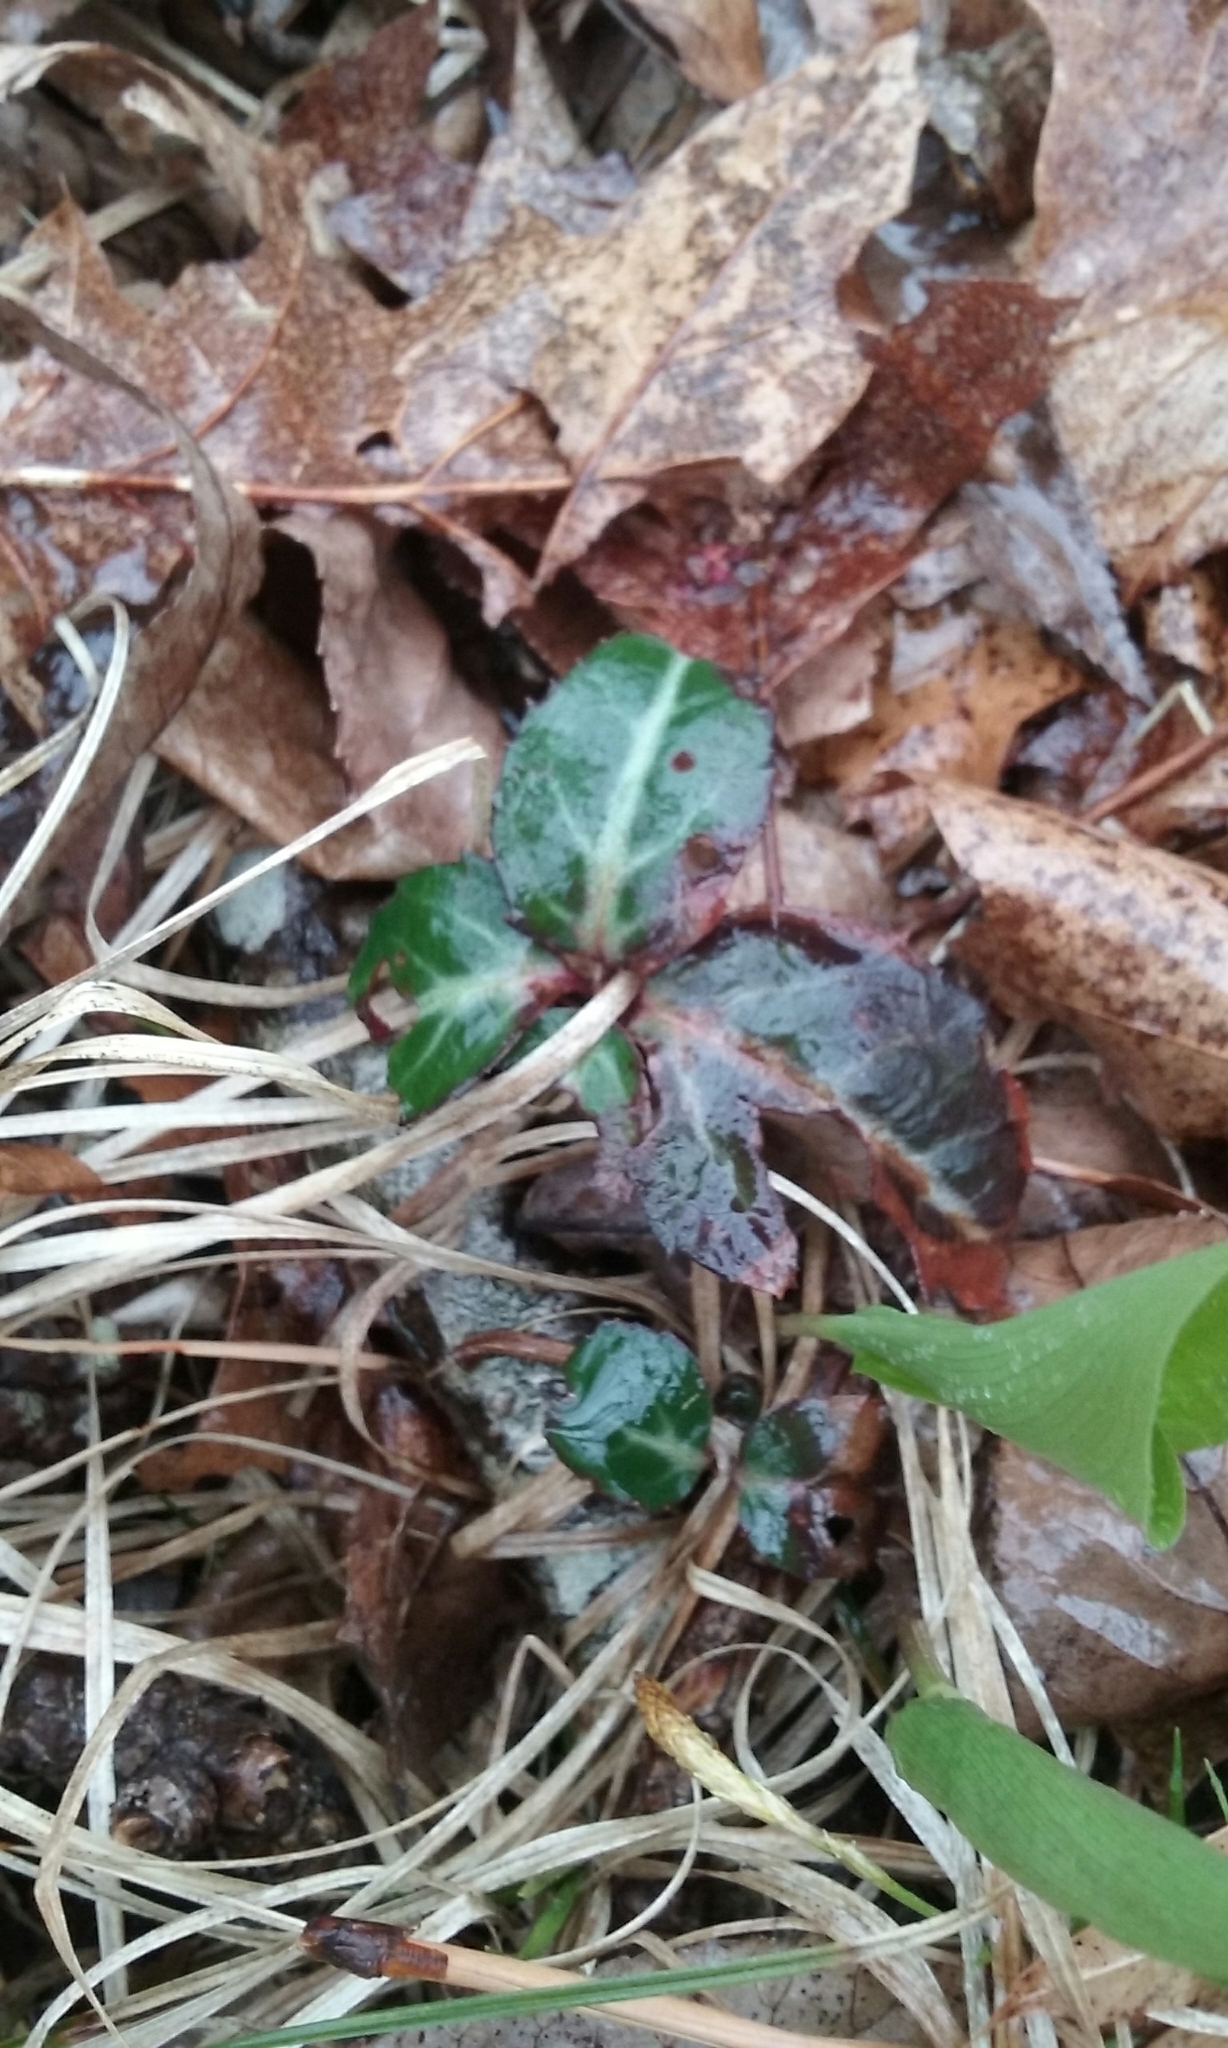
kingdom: Plantae
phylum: Tracheophyta
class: Magnoliopsida
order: Ericales
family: Ericaceae
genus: Chimaphila
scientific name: Chimaphila maculata
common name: Spotted pipsissewa
